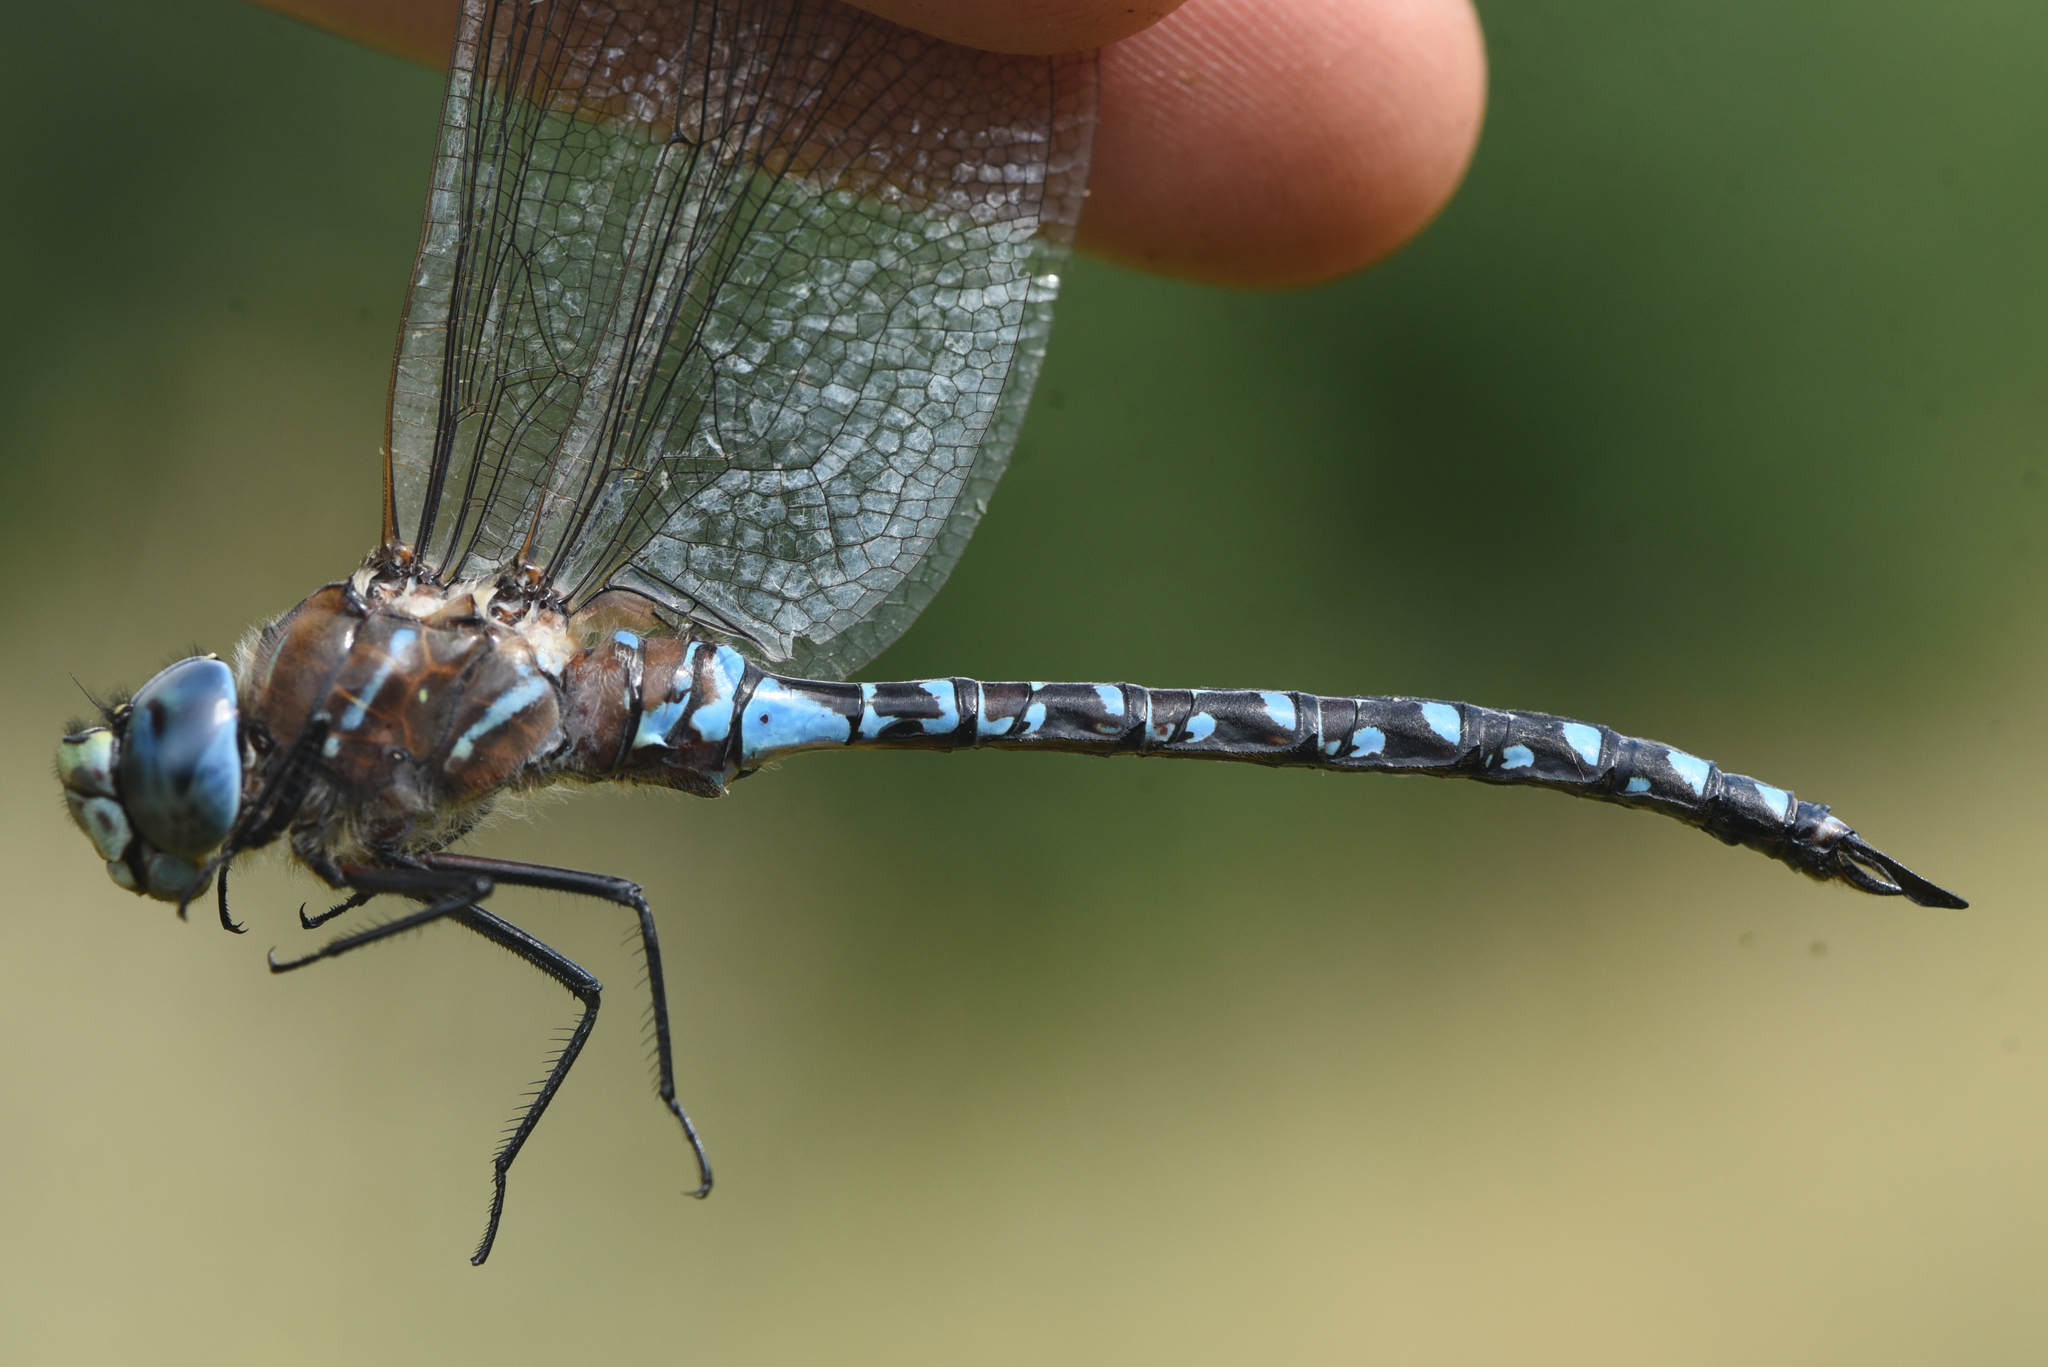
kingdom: Animalia
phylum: Arthropoda
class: Insecta
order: Odonata
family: Aeshnidae
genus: Aeshna
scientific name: Aeshna interrupta
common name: Variable darner
